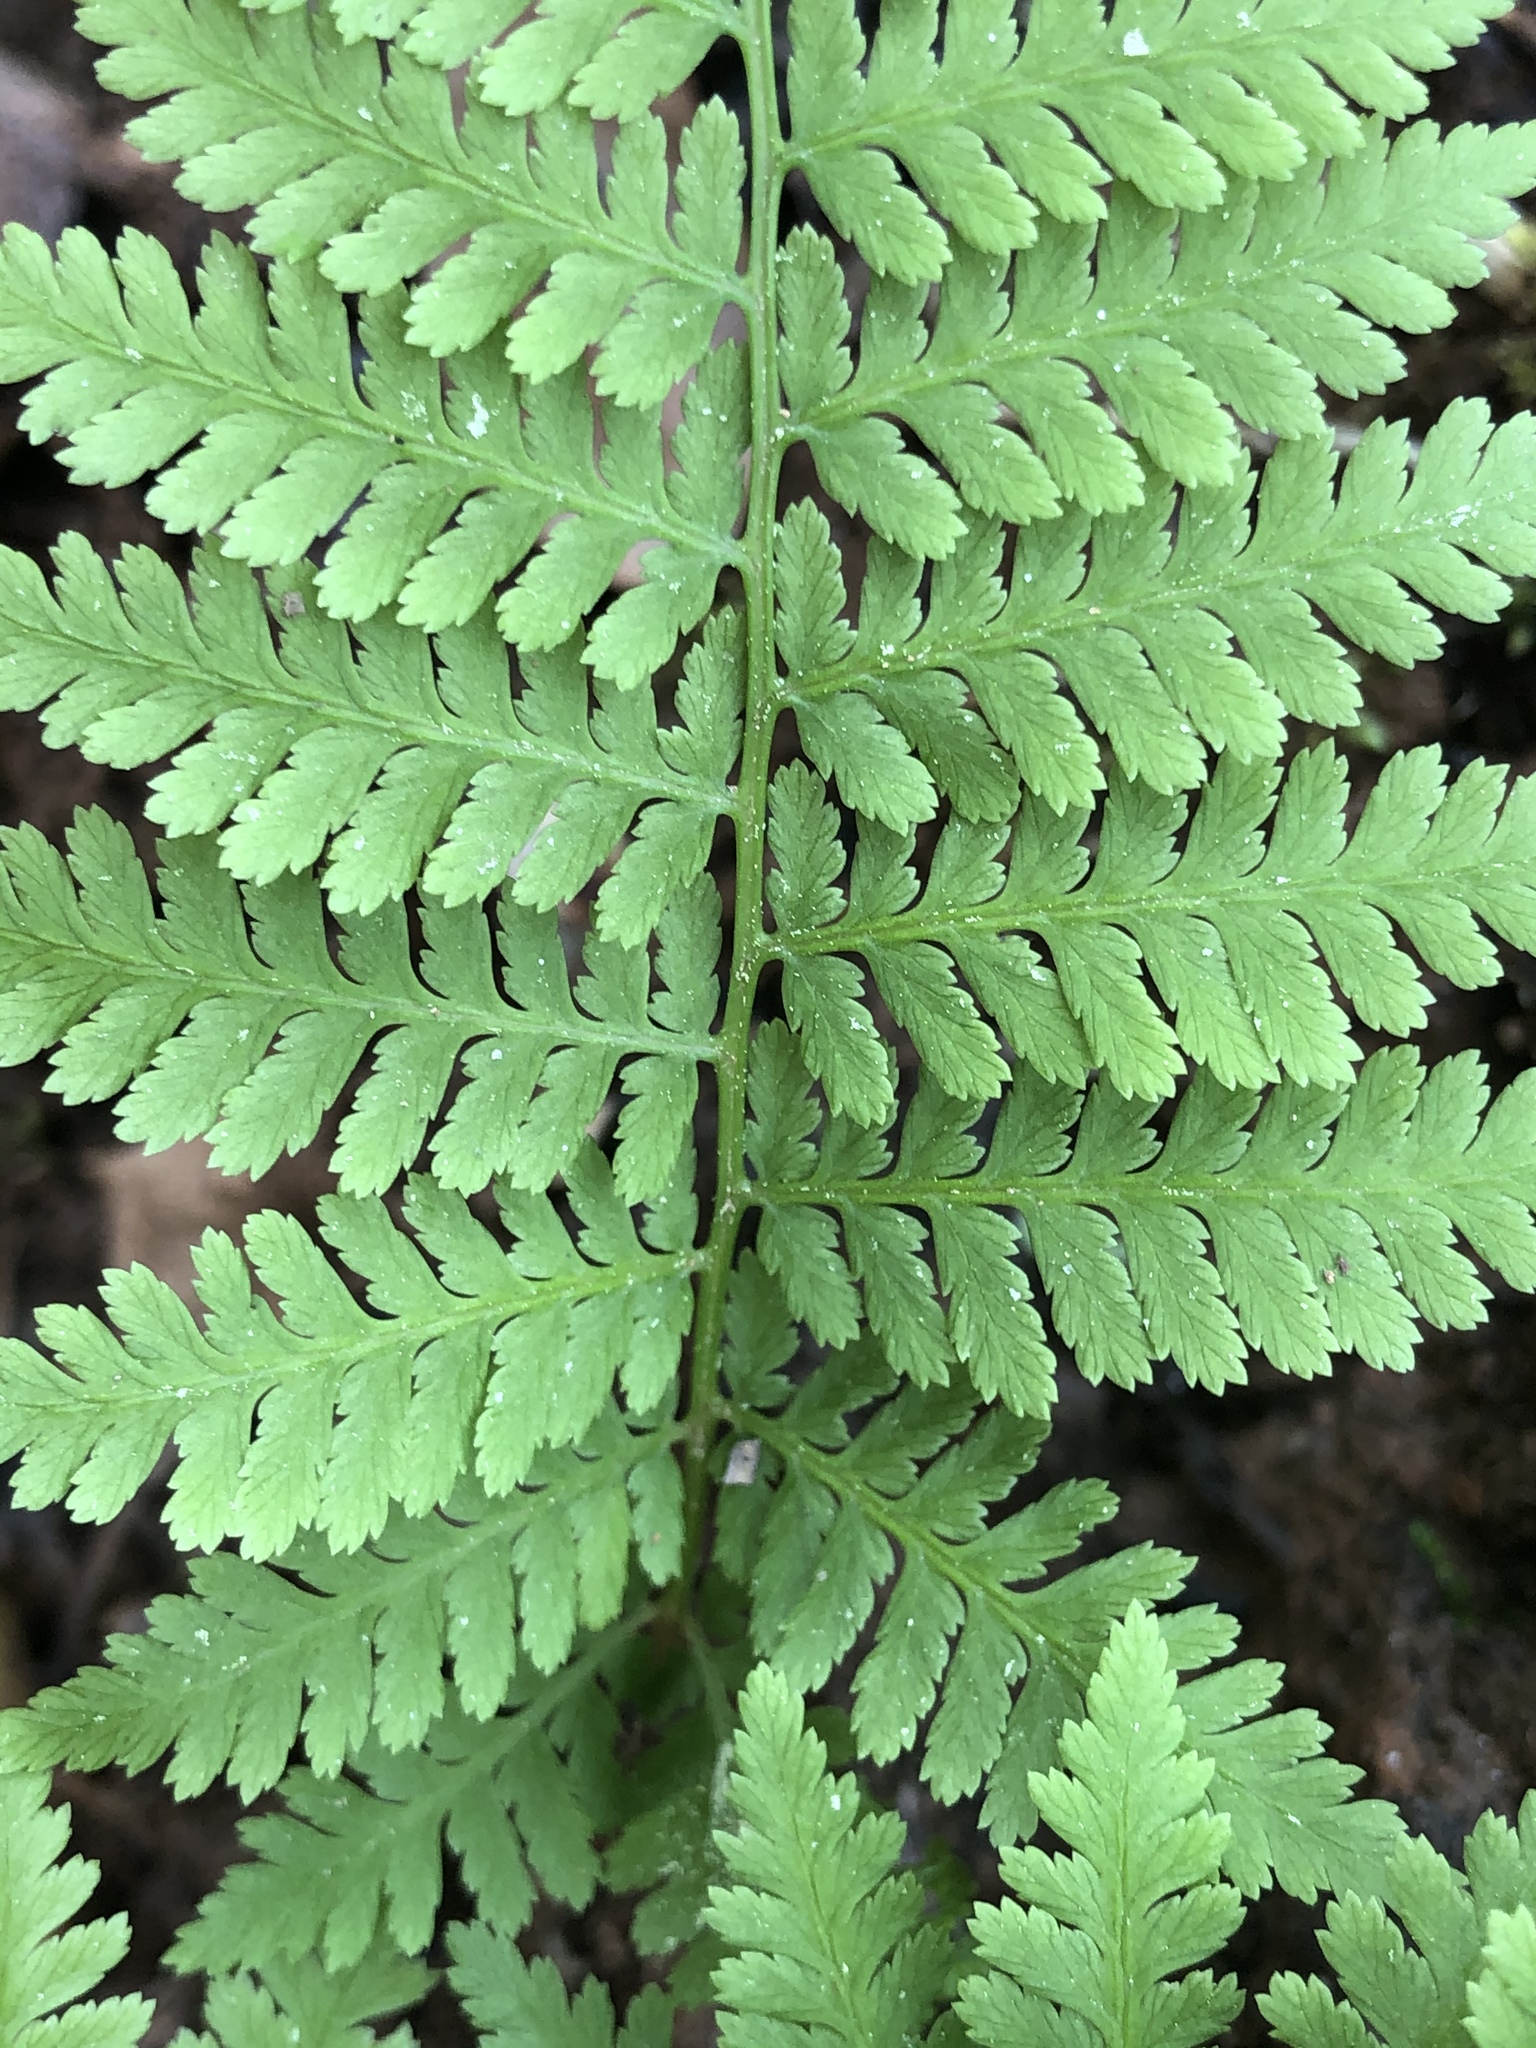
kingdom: Plantae
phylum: Tracheophyta
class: Polypodiopsida
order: Polypodiales
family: Athyriaceae
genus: Athyrium
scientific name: Athyrium asplenioides
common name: Southern lady fern
